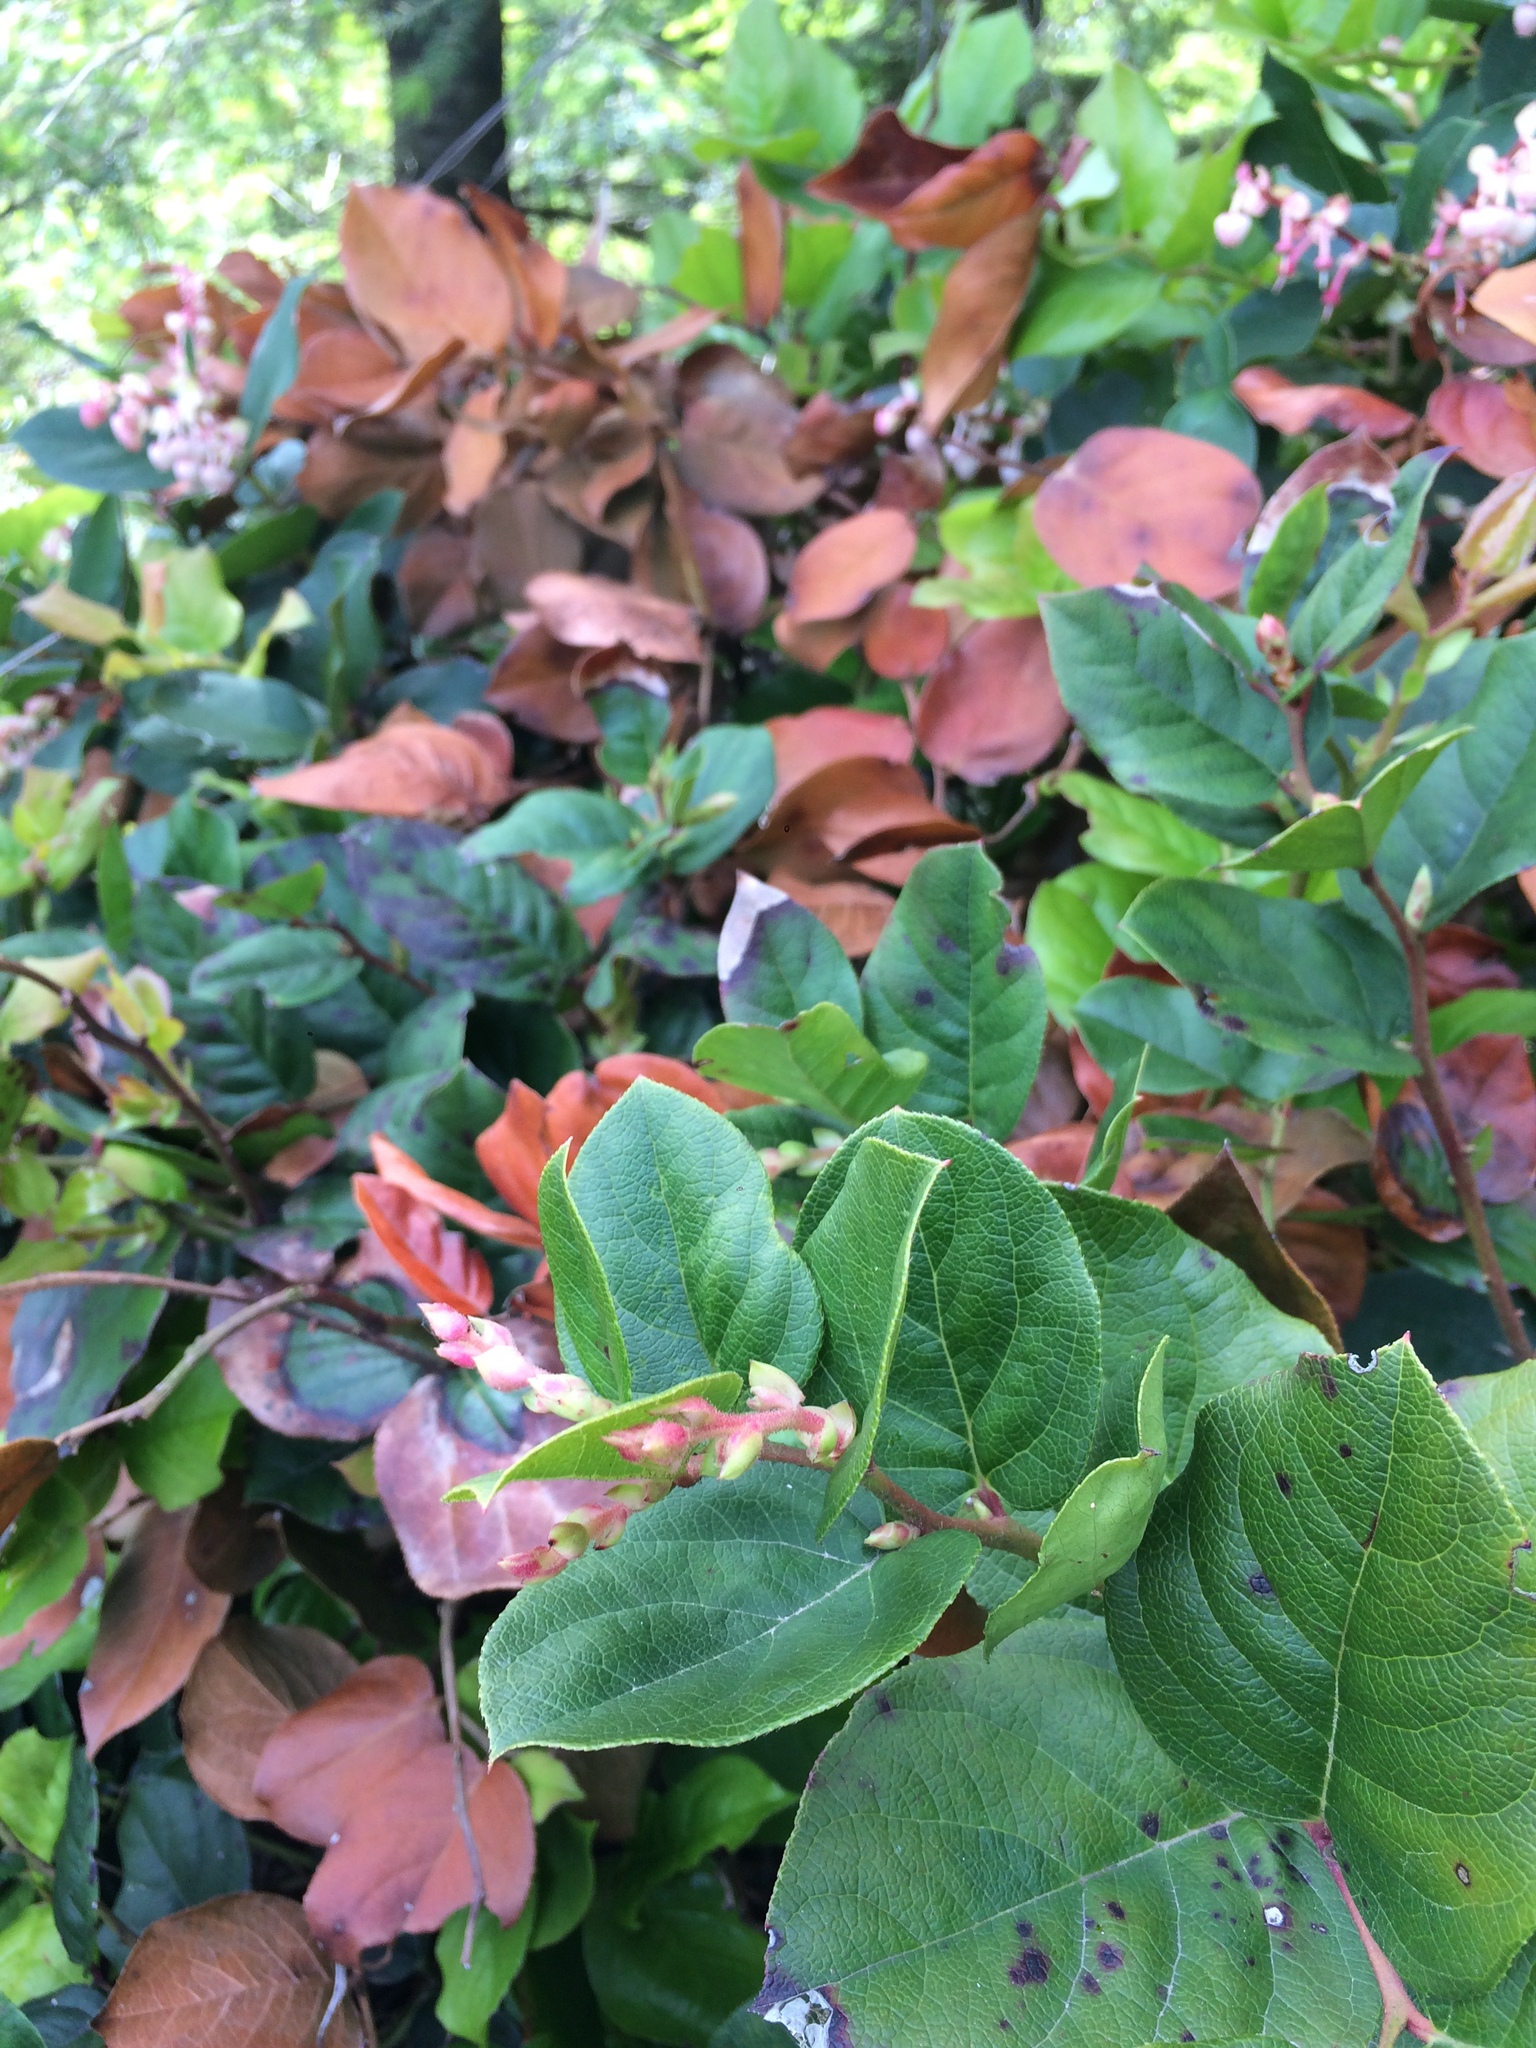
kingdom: Plantae
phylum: Tracheophyta
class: Magnoliopsida
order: Ericales
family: Ericaceae
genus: Gaultheria
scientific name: Gaultheria shallon
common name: Shallon
